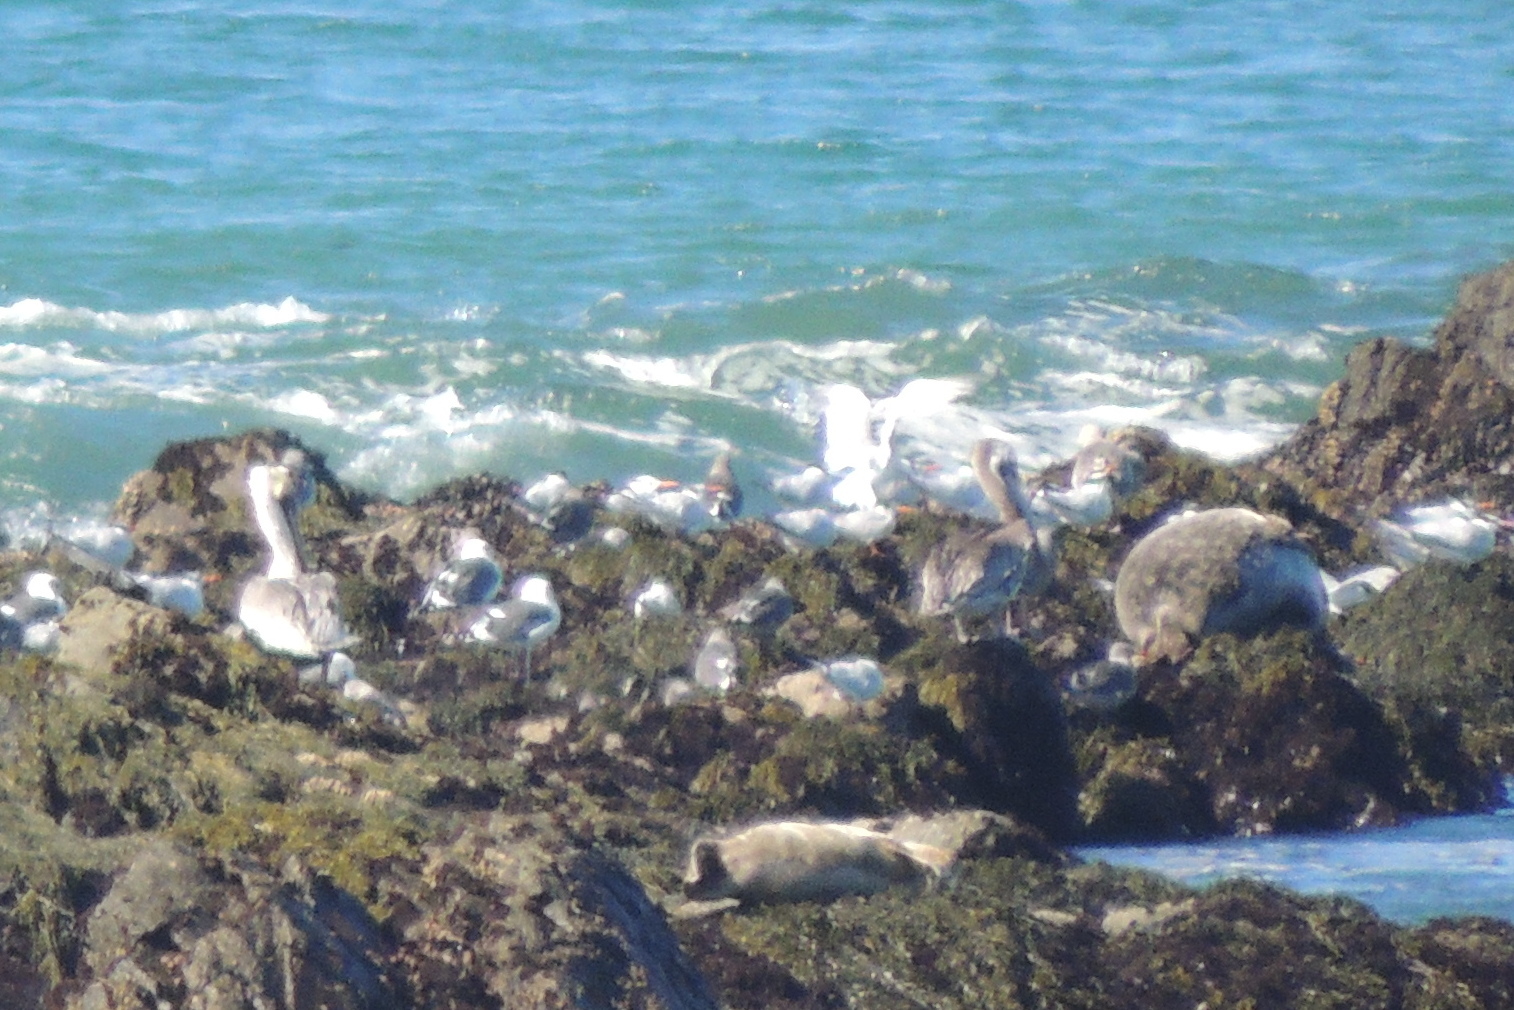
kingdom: Animalia
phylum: Chordata
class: Aves
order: Pelecaniformes
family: Pelecanidae
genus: Pelecanus
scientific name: Pelecanus occidentalis
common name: Brown pelican
